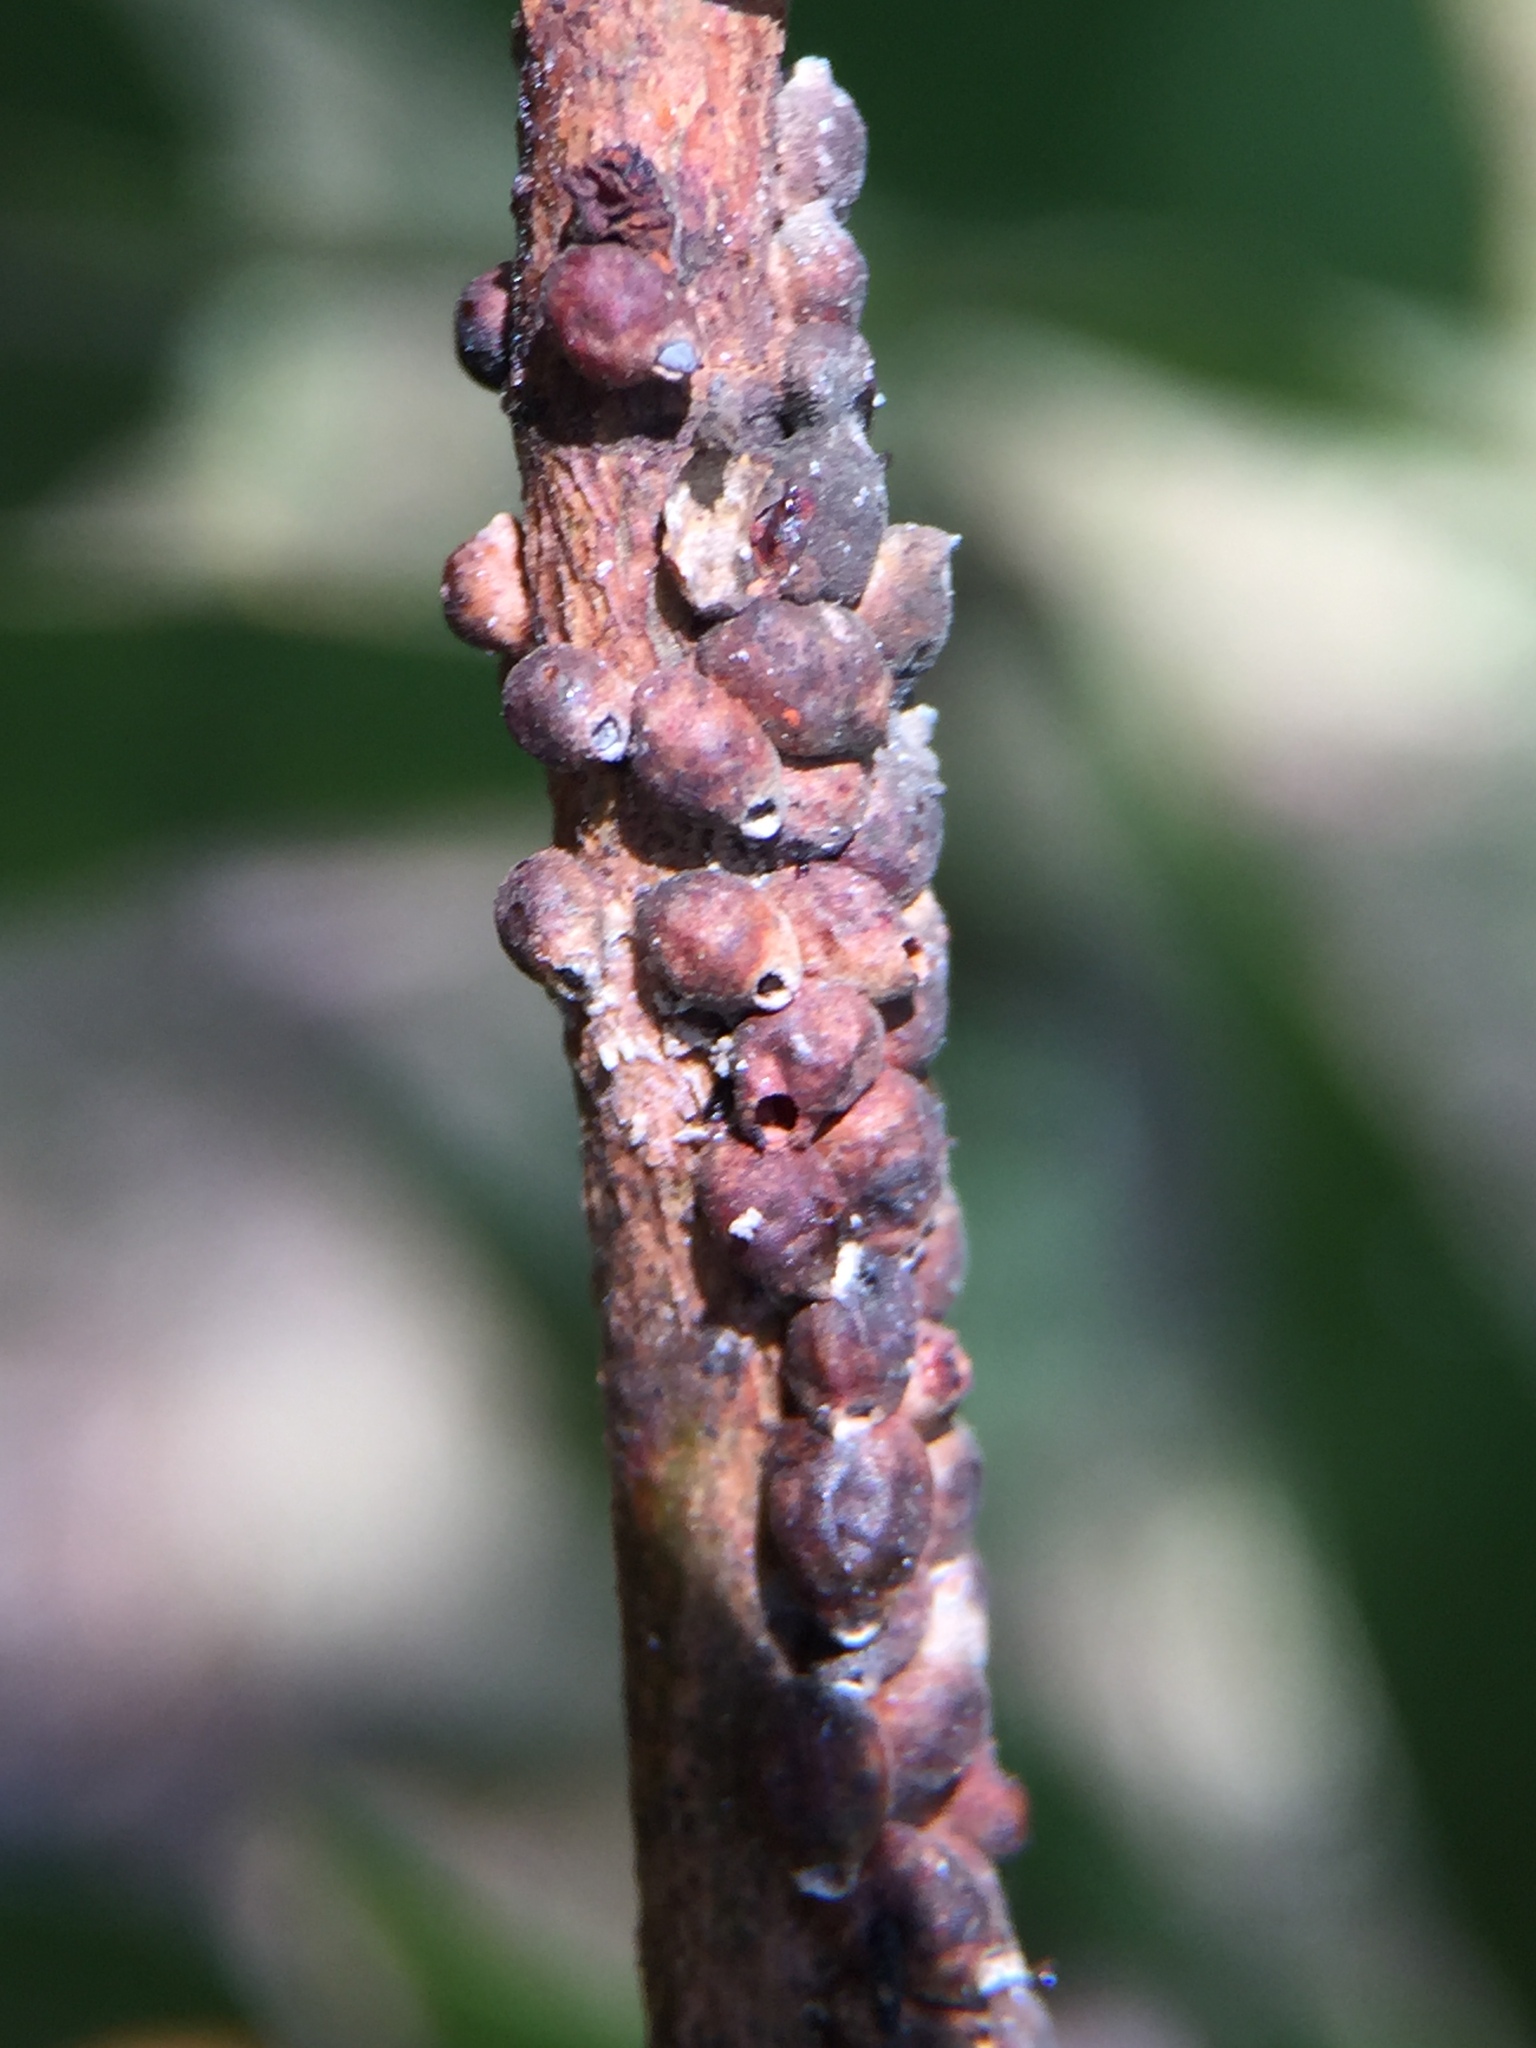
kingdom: Animalia
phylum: Arthropoda
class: Insecta
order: Hemiptera
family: Eriococcidae
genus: Eriococcus
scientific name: Eriococcus coriaceus
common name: Blue gum scale
